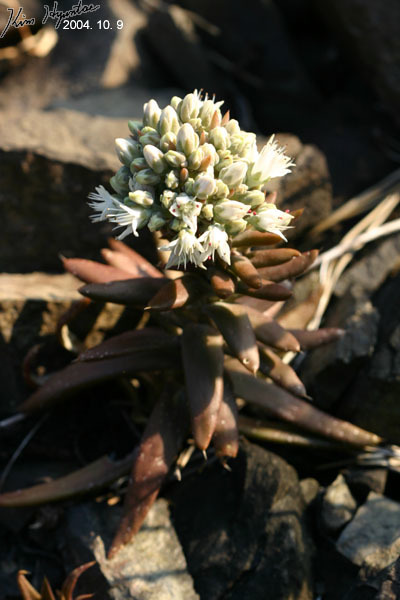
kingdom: Plantae
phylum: Tracheophyta
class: Magnoliopsida
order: Saxifragales
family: Crassulaceae
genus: Orostachys
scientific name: Orostachys japonica
